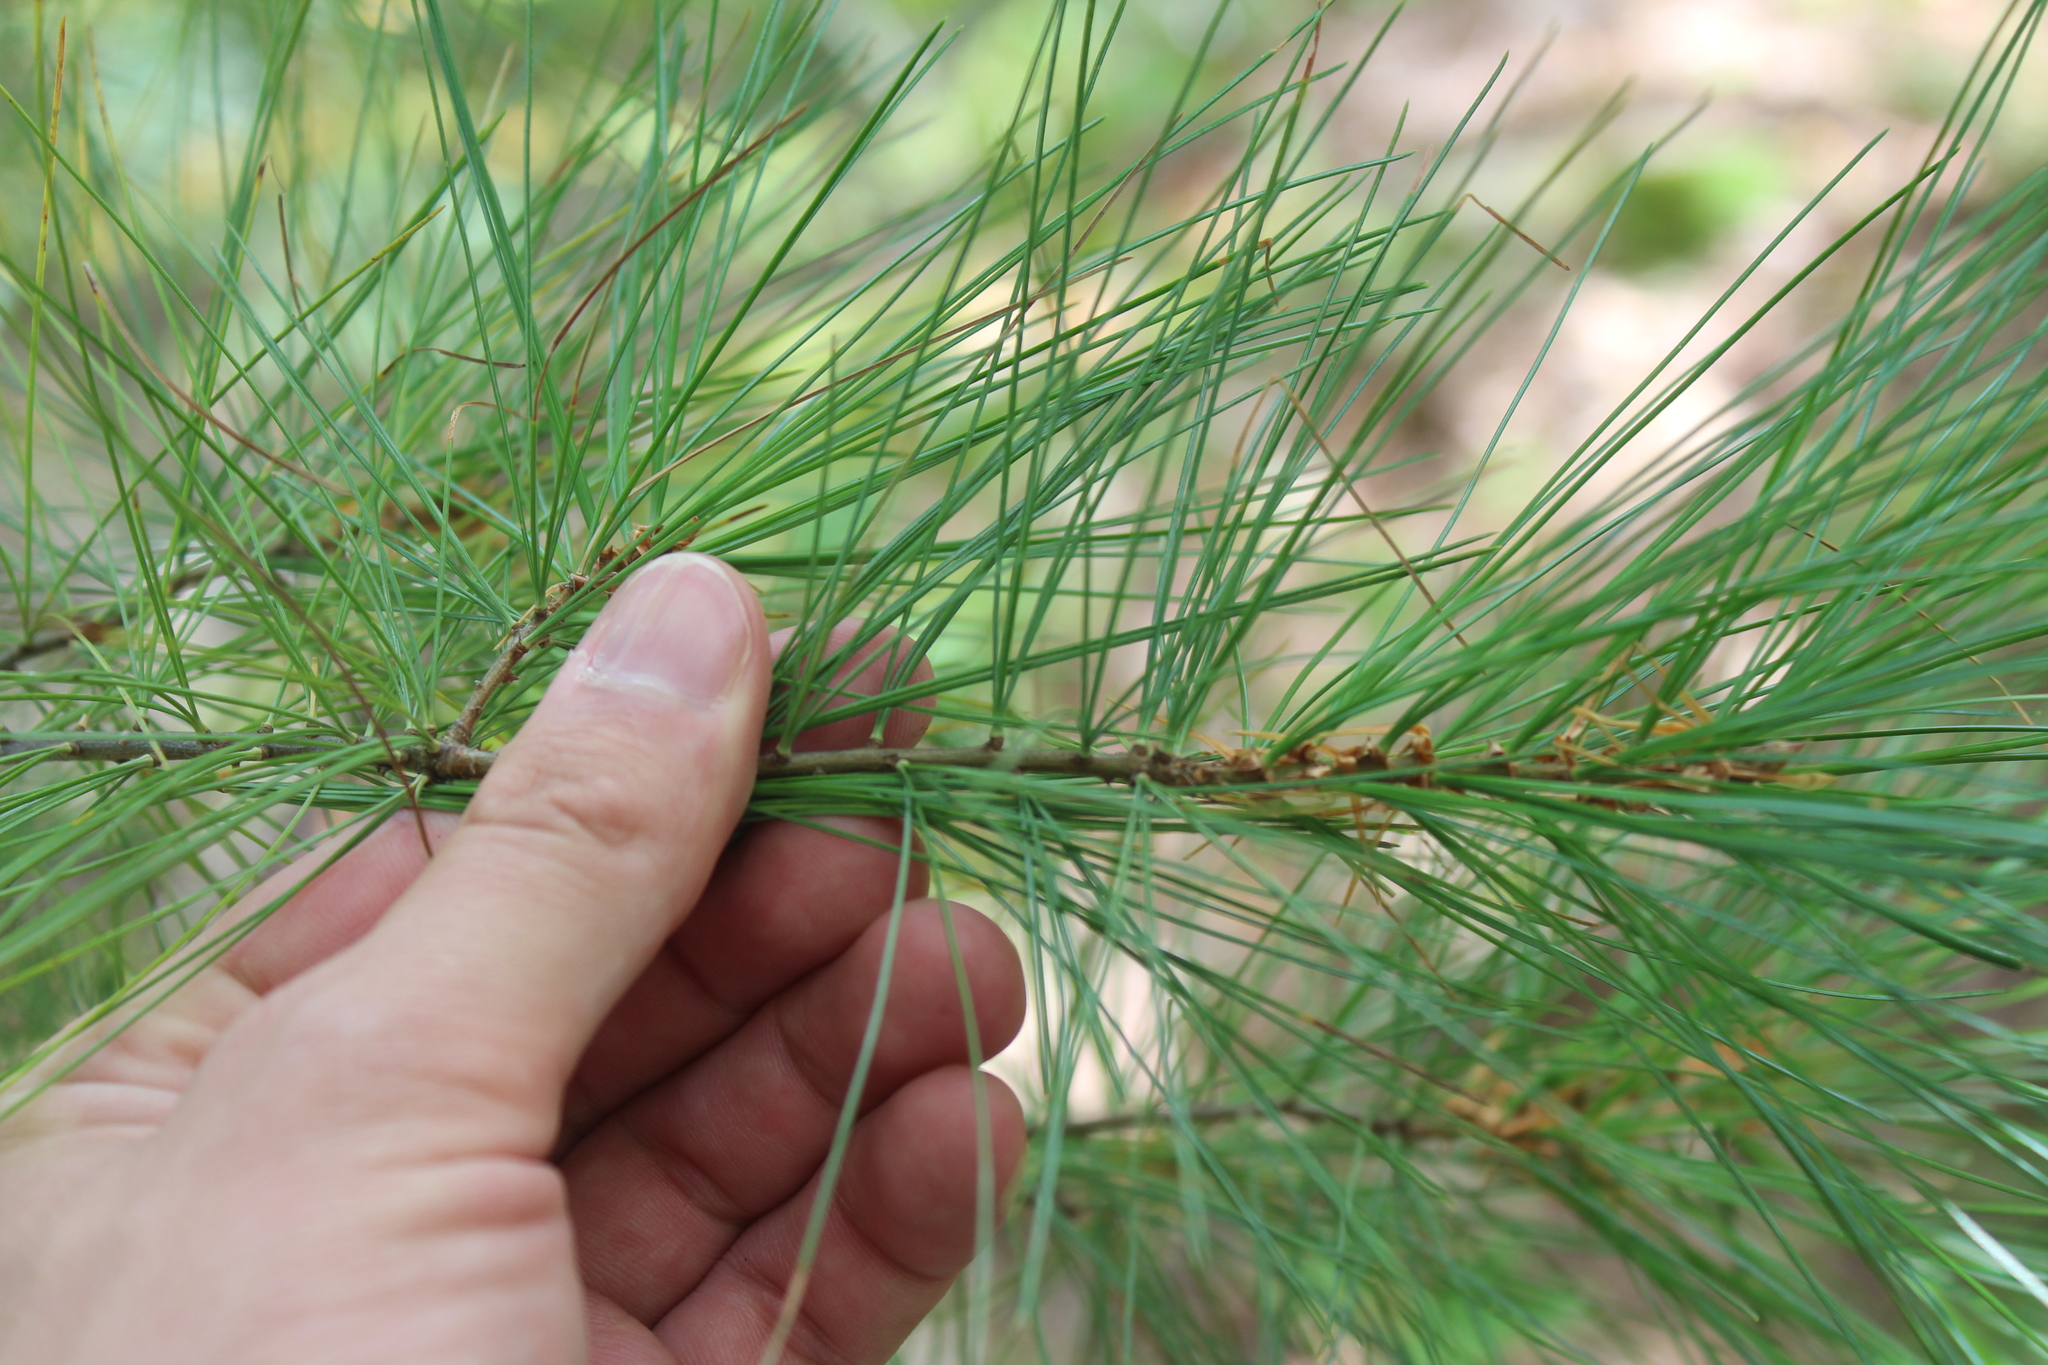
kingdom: Plantae
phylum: Tracheophyta
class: Pinopsida
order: Pinales
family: Pinaceae
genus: Pinus
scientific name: Pinus strobus
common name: Weymouth pine
